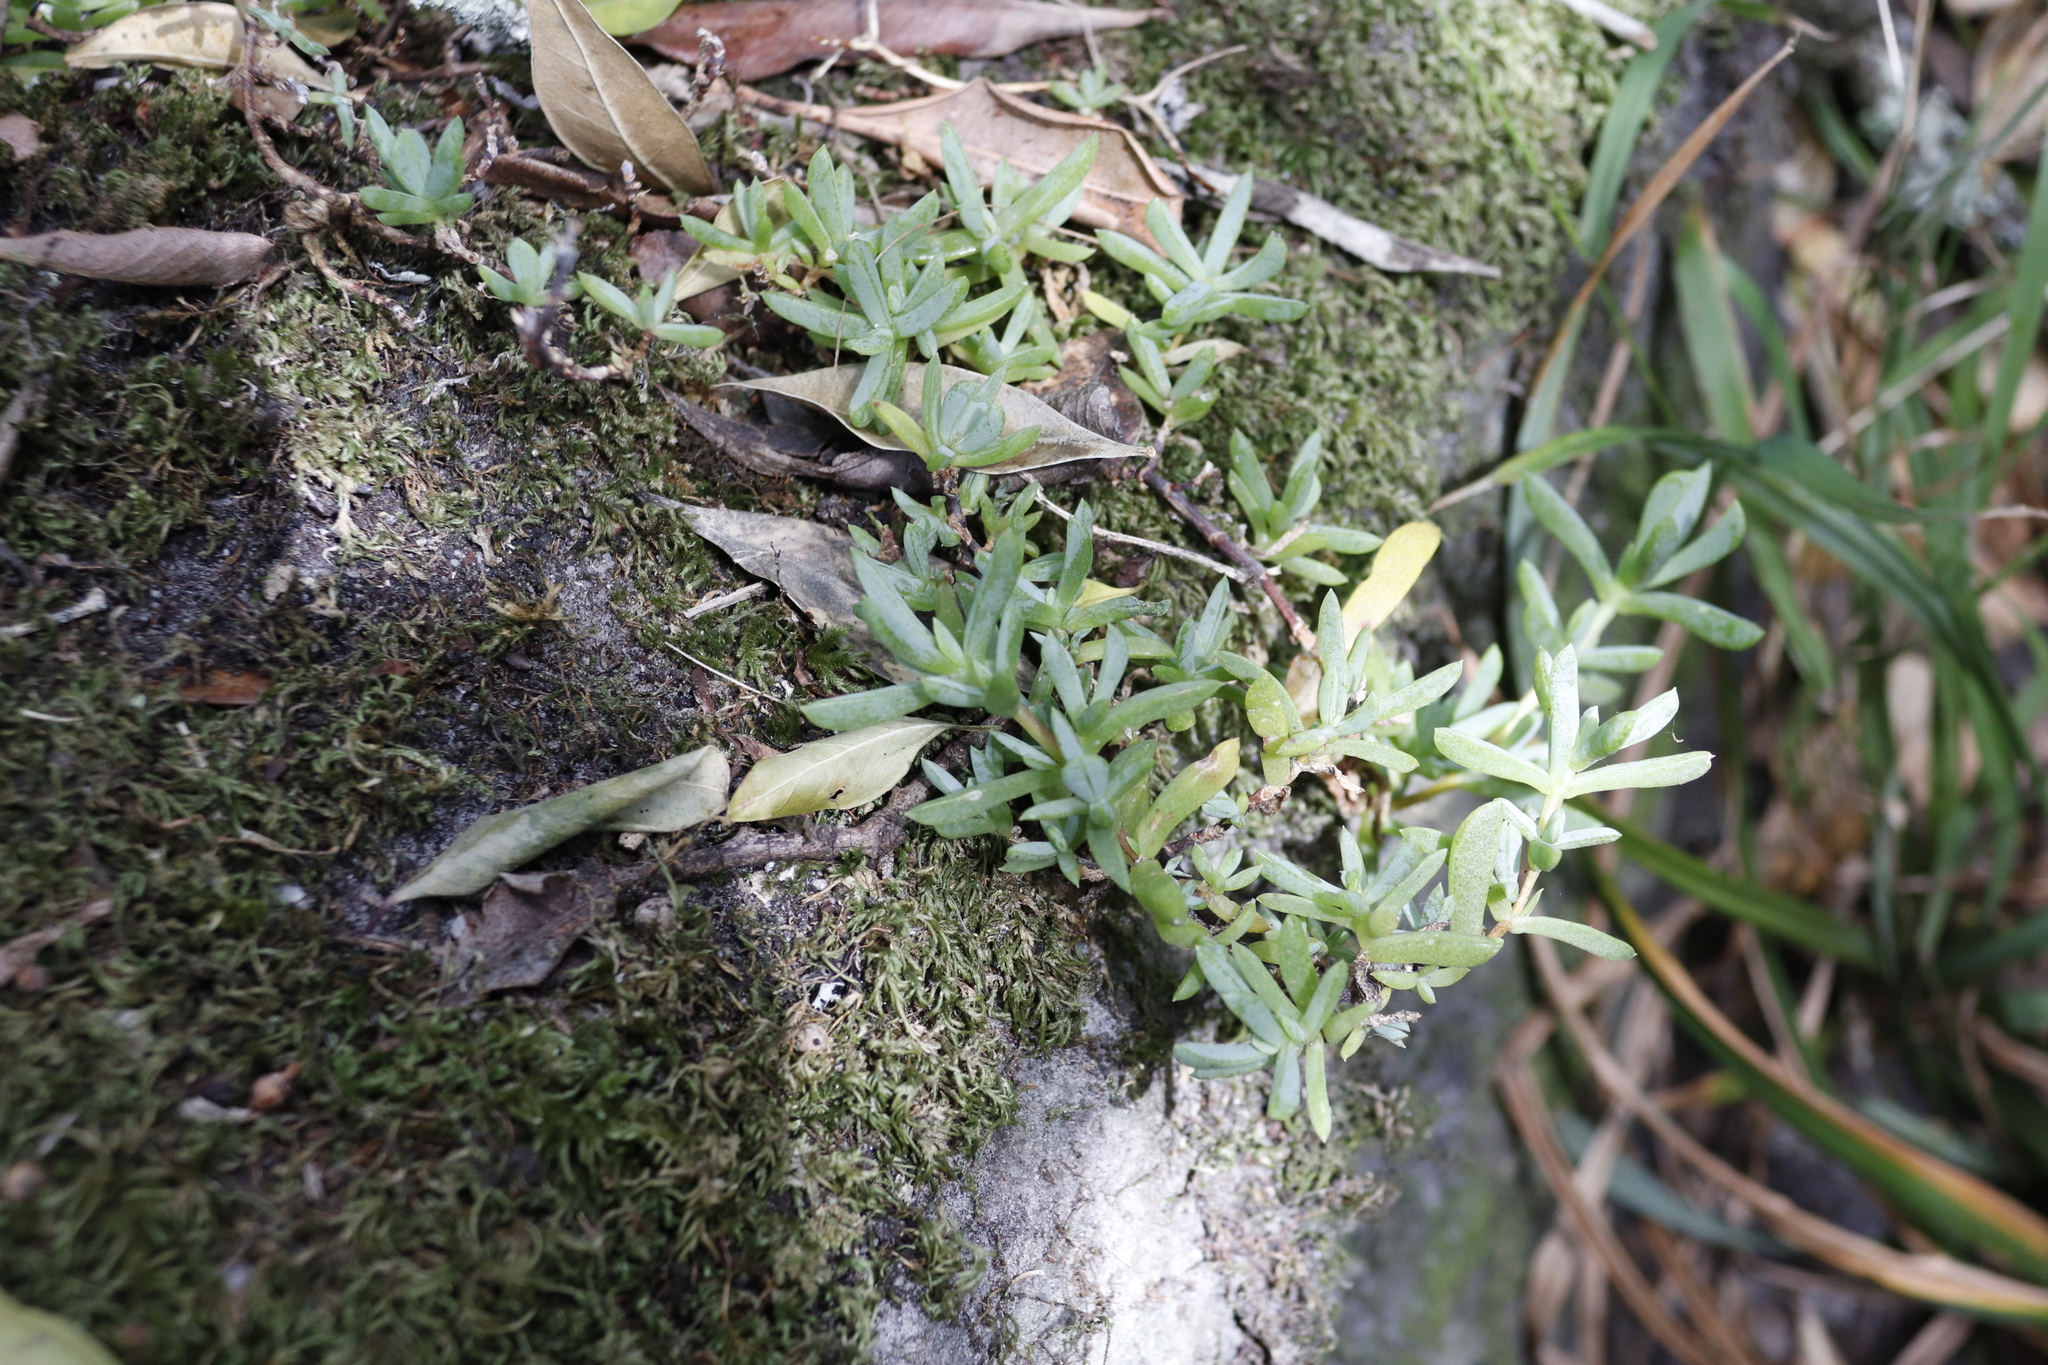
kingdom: Plantae
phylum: Tracheophyta
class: Magnoliopsida
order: Caryophyllales
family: Aizoaceae
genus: Oscularia
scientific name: Oscularia falciformis
